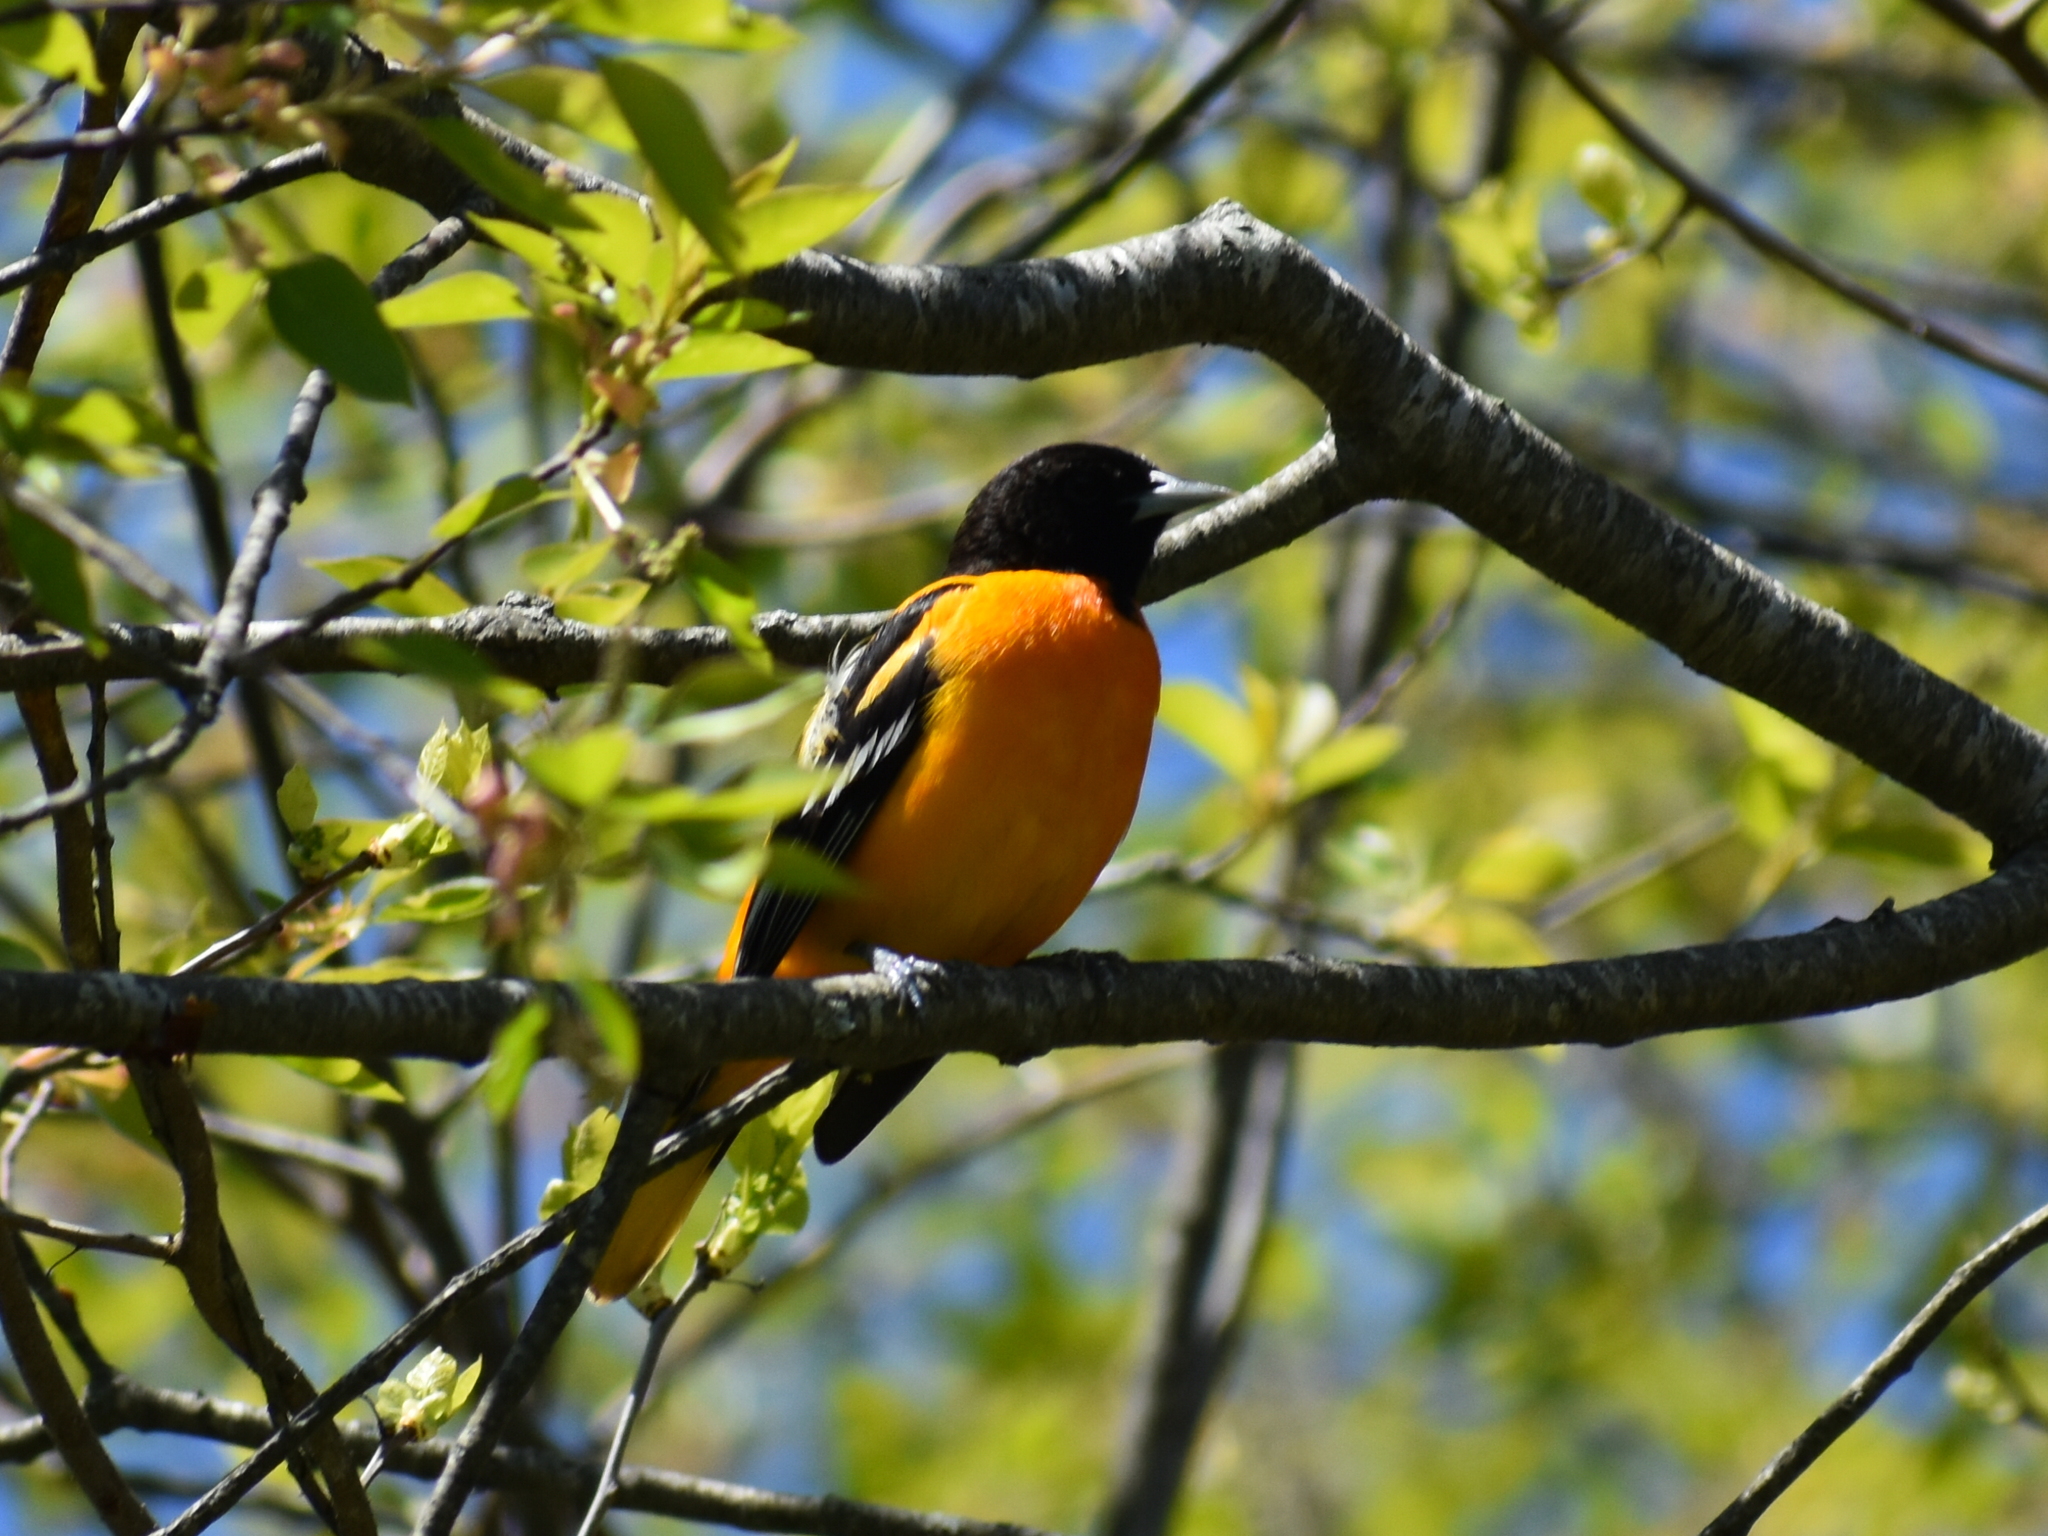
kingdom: Animalia
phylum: Chordata
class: Aves
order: Passeriformes
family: Icteridae
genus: Icterus
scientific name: Icterus galbula
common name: Baltimore oriole
